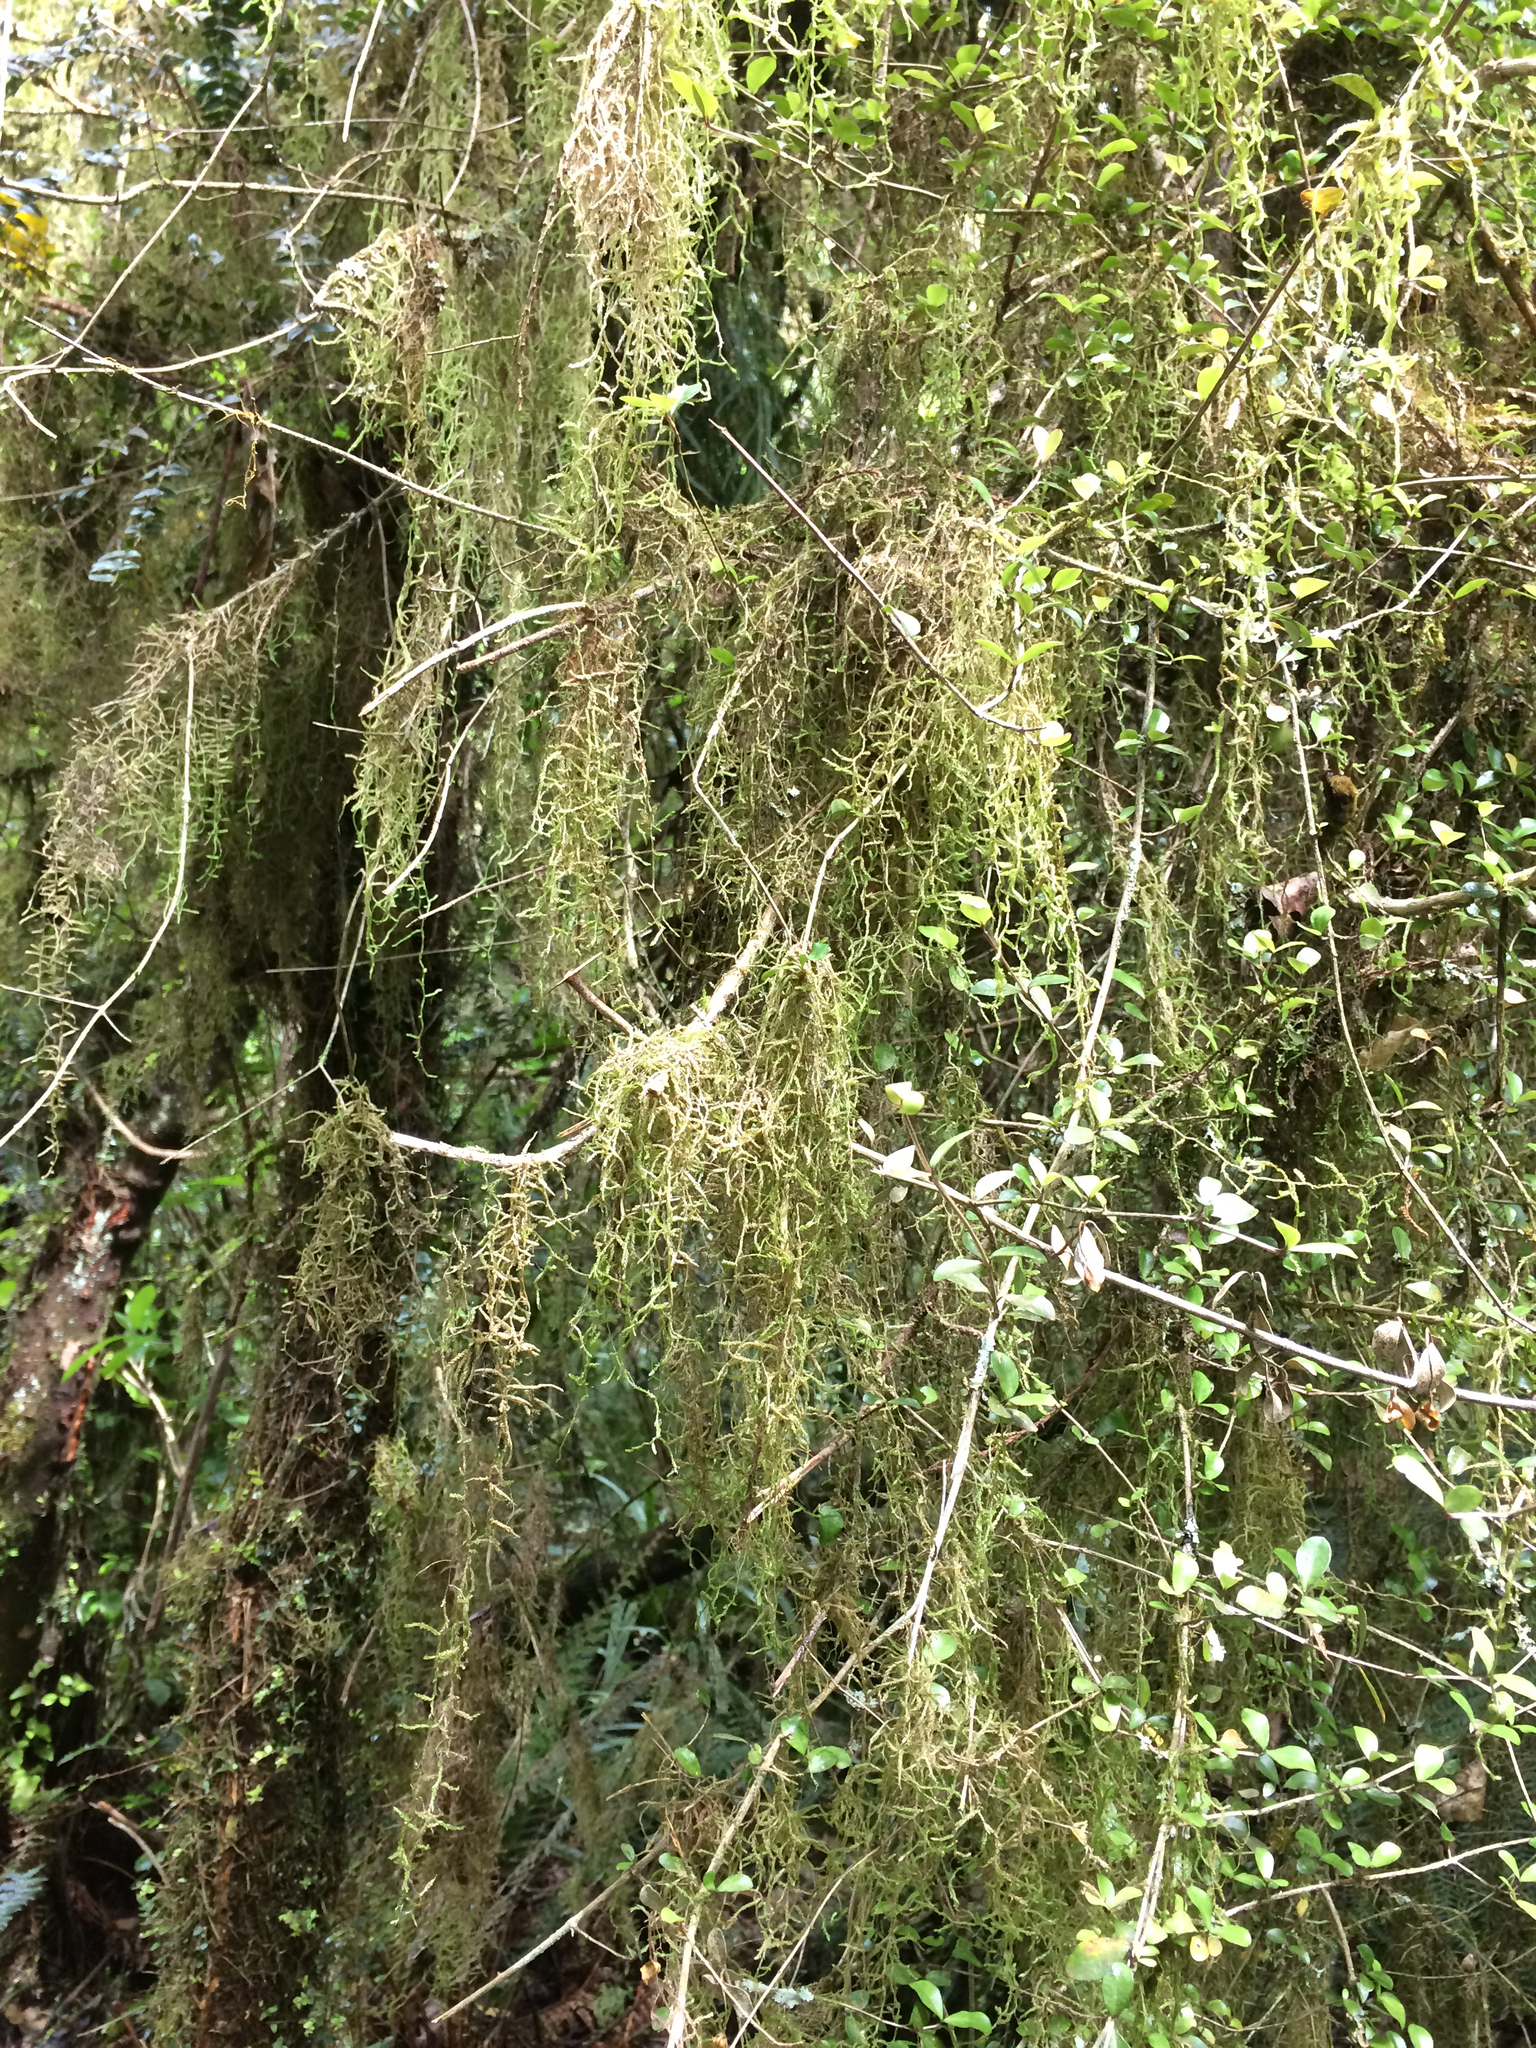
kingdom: Plantae
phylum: Bryophyta
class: Bryopsida
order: Hypnales
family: Lembophyllaceae
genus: Weymouthia
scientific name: Weymouthia mollis
